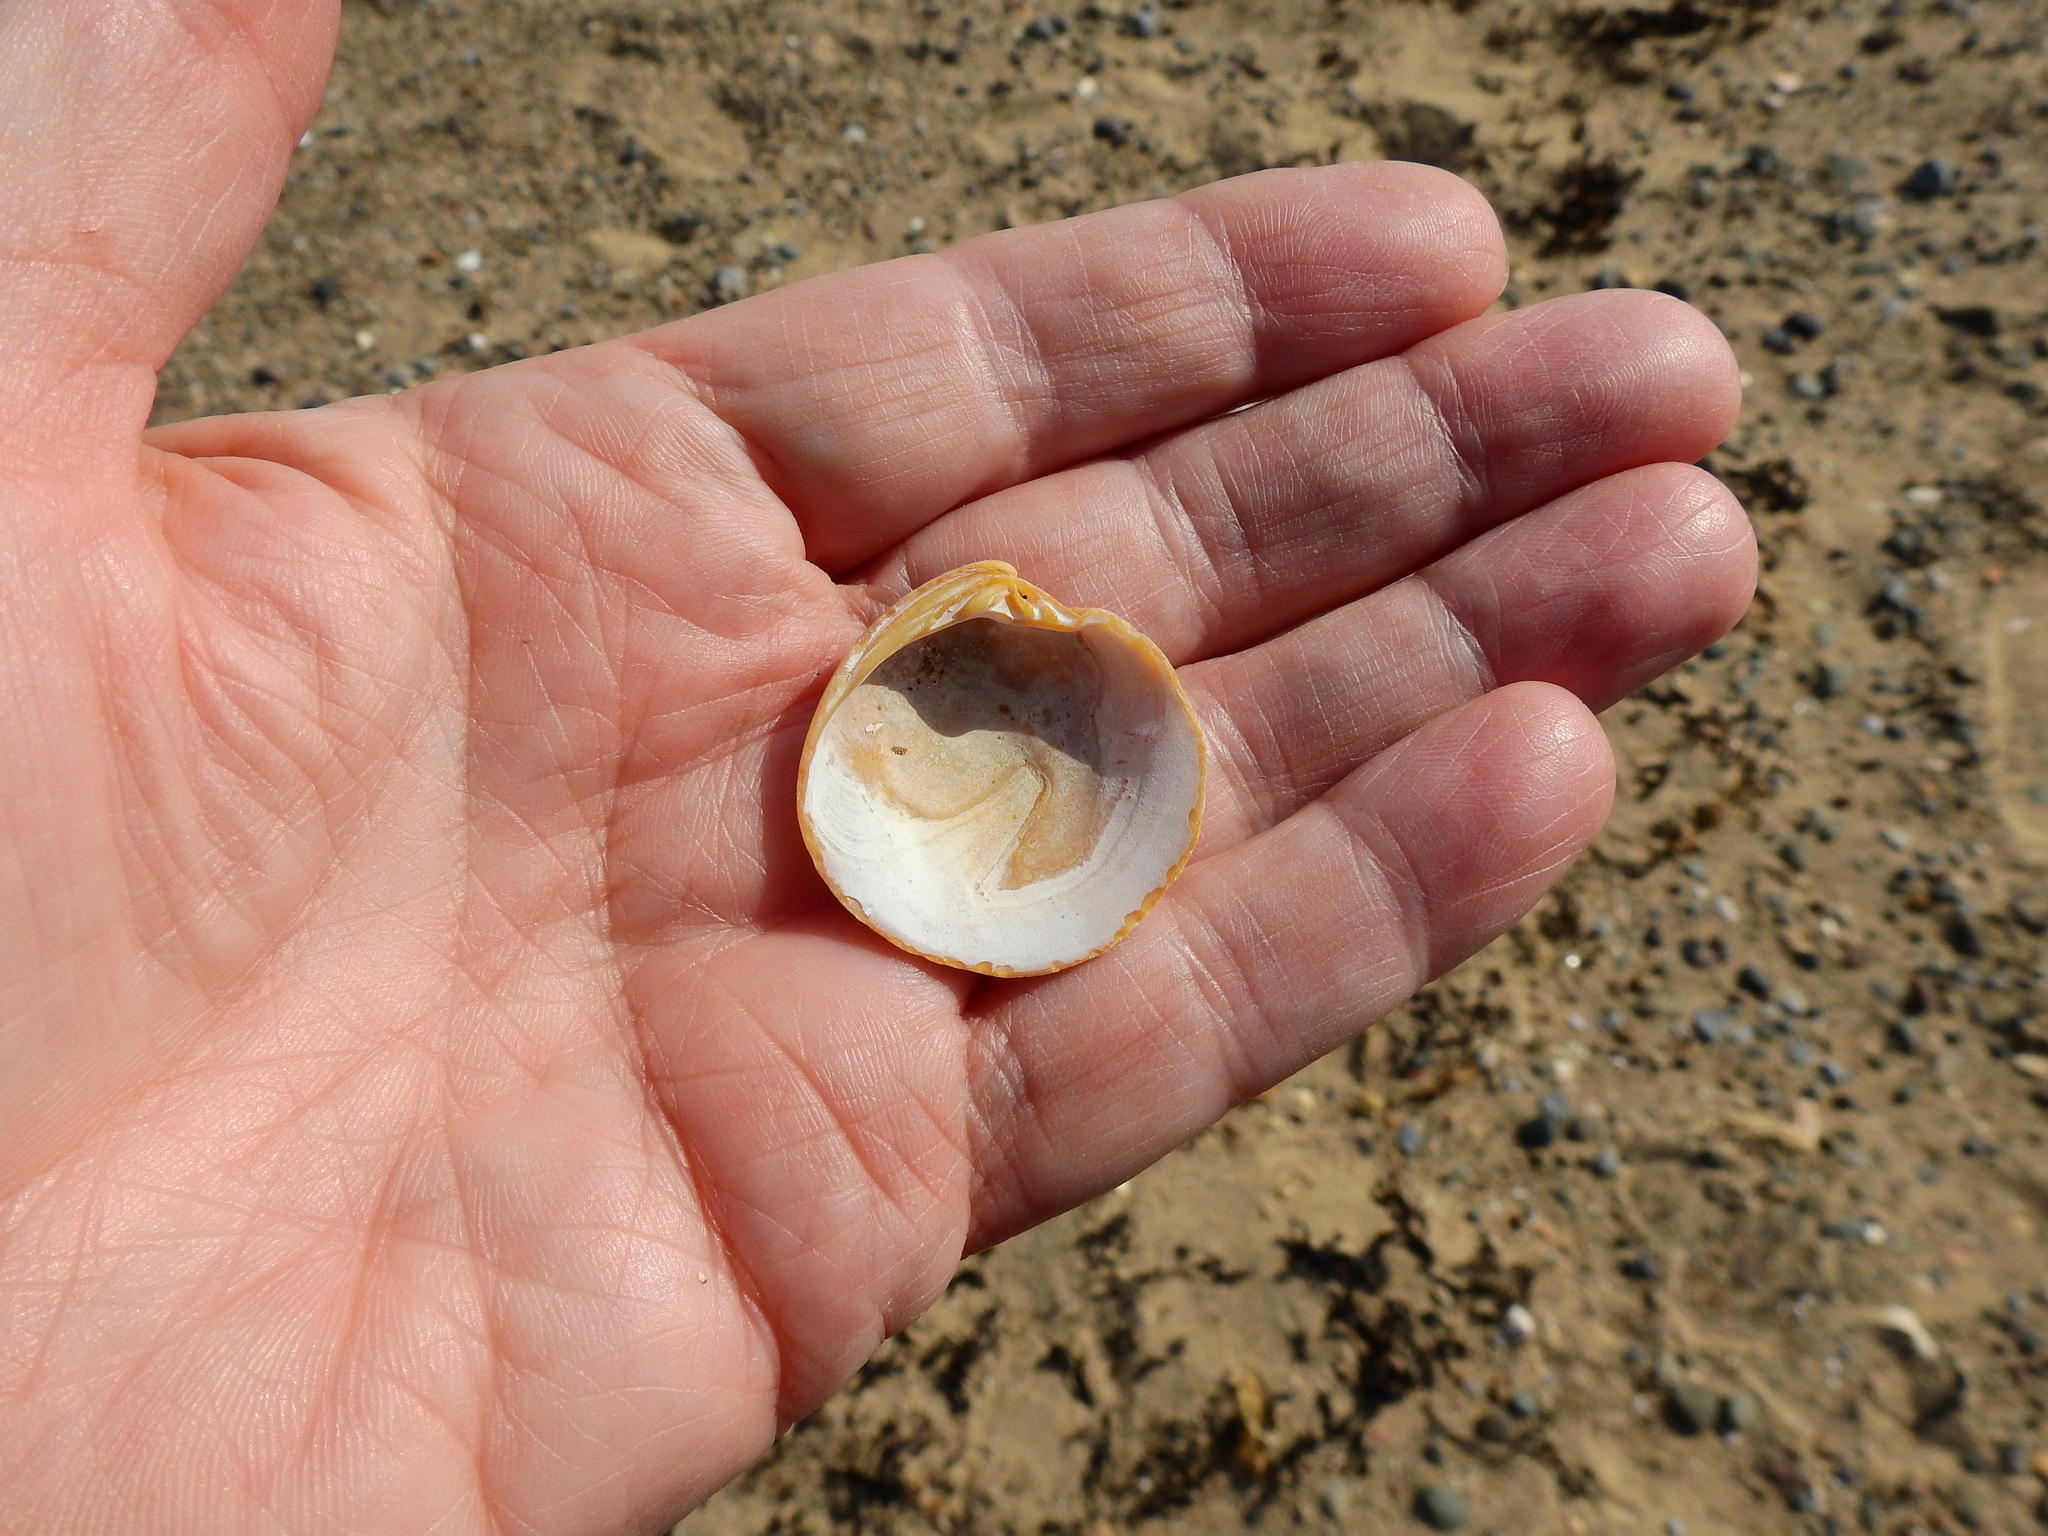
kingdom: Animalia
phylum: Mollusca
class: Bivalvia
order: Venerida
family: Veneridae
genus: Dosinia
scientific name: Dosinia lupinus
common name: Smooth artemis
